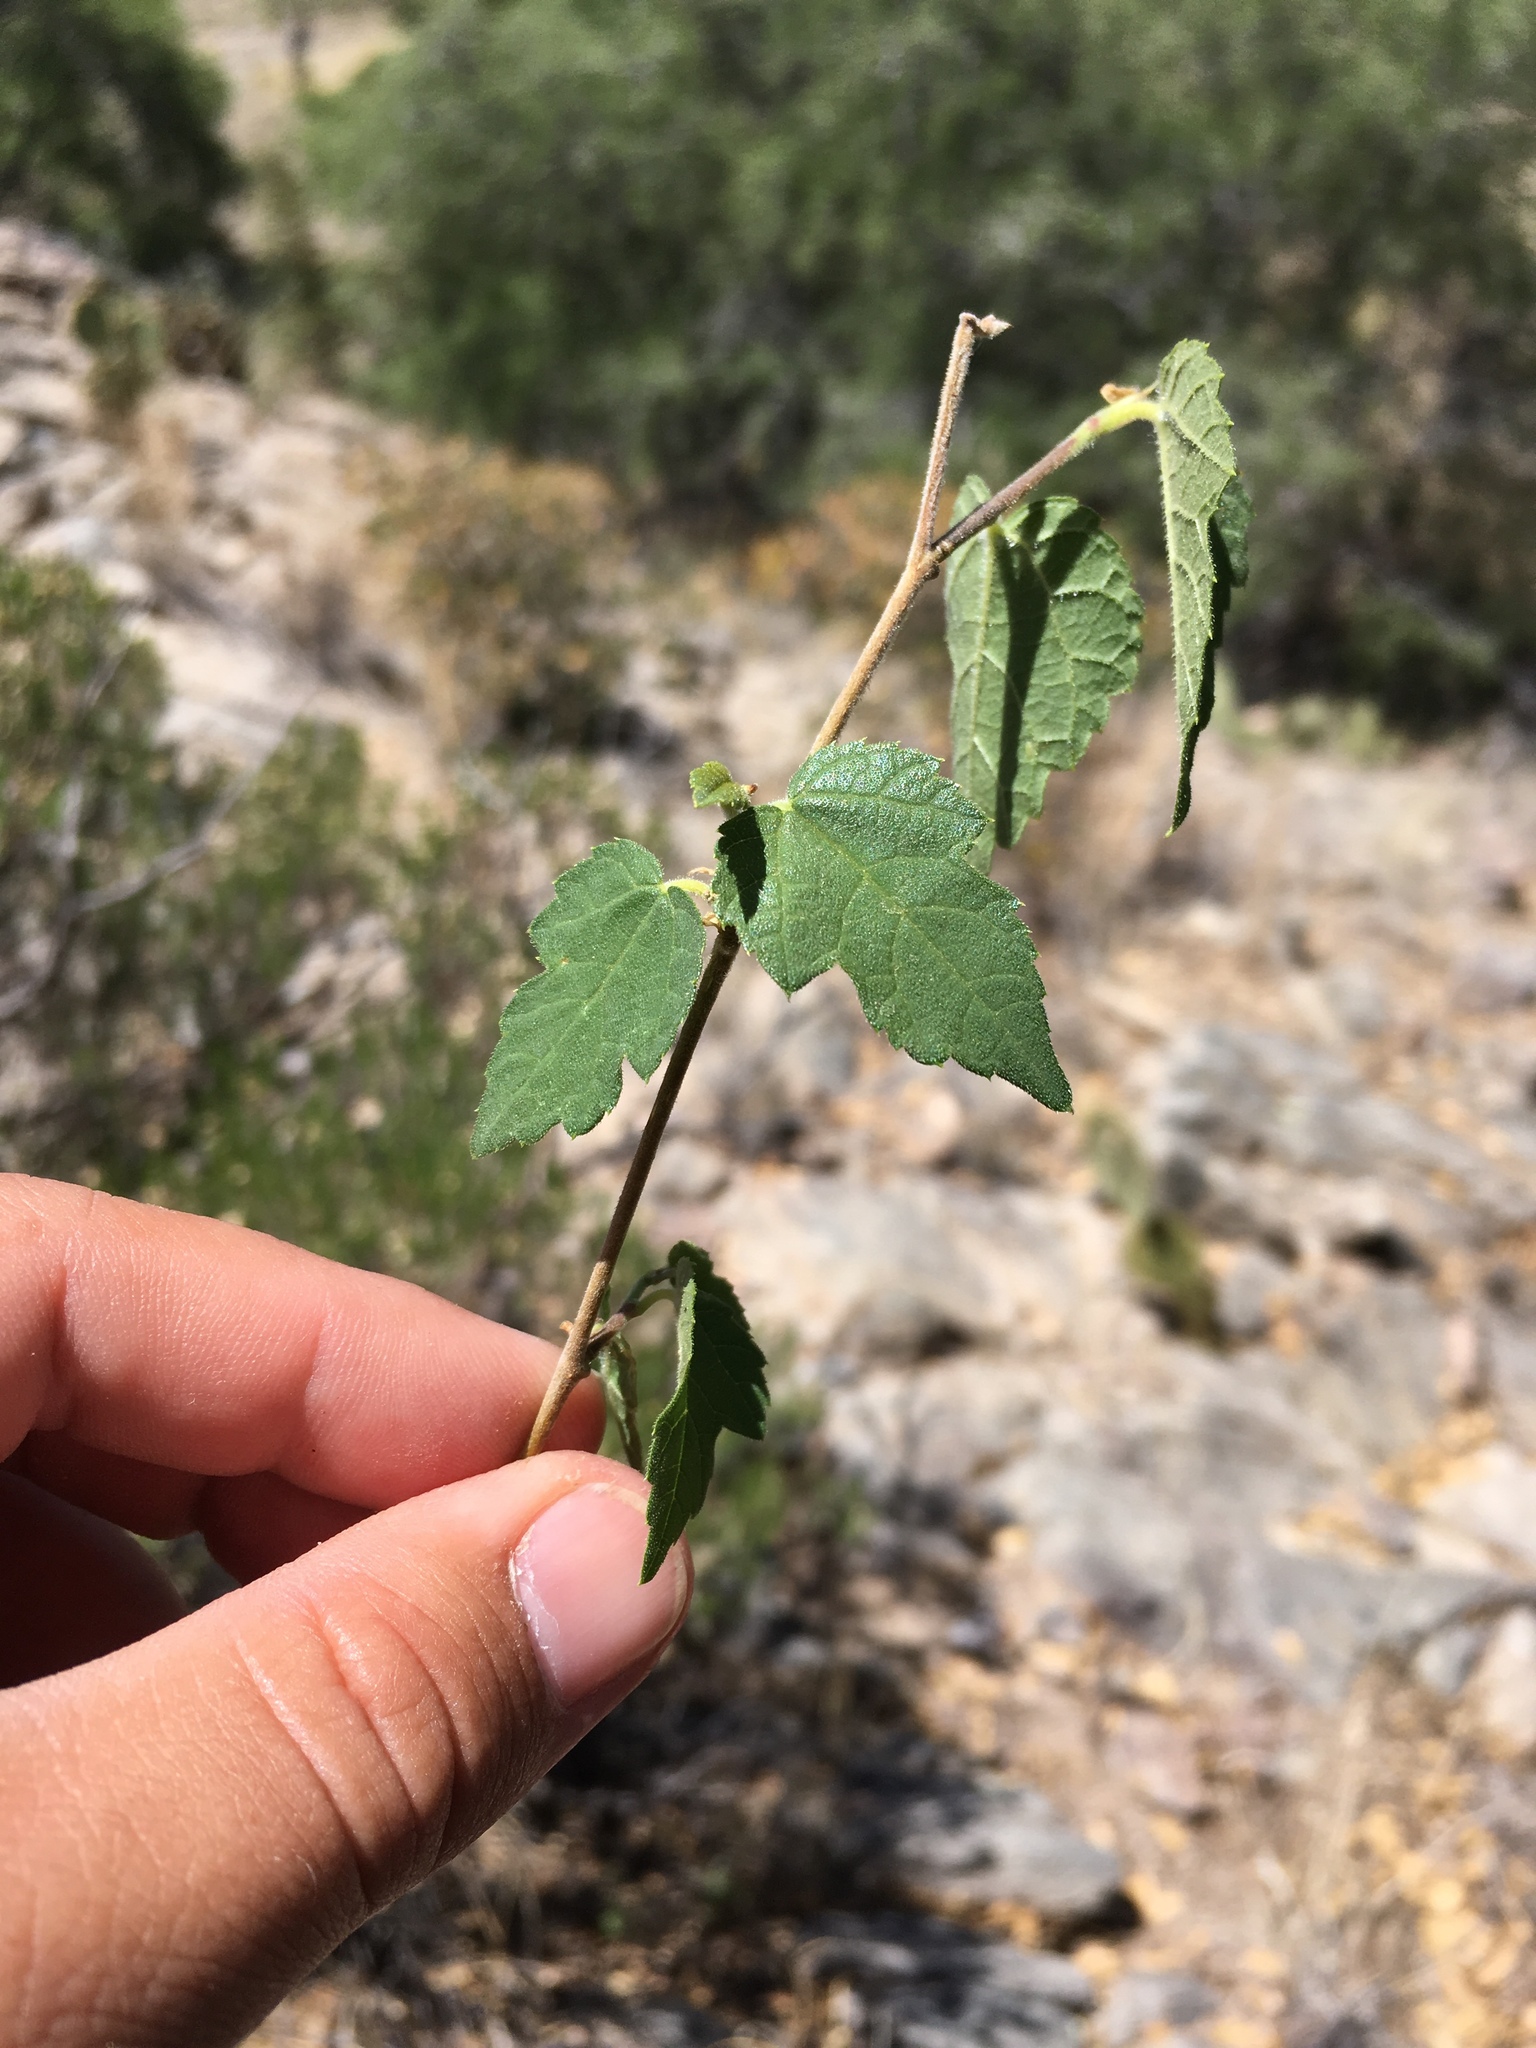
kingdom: Plantae
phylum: Tracheophyta
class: Magnoliopsida
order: Rosales
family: Moraceae
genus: Morus
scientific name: Morus microphylla
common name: Mexican mulberry
